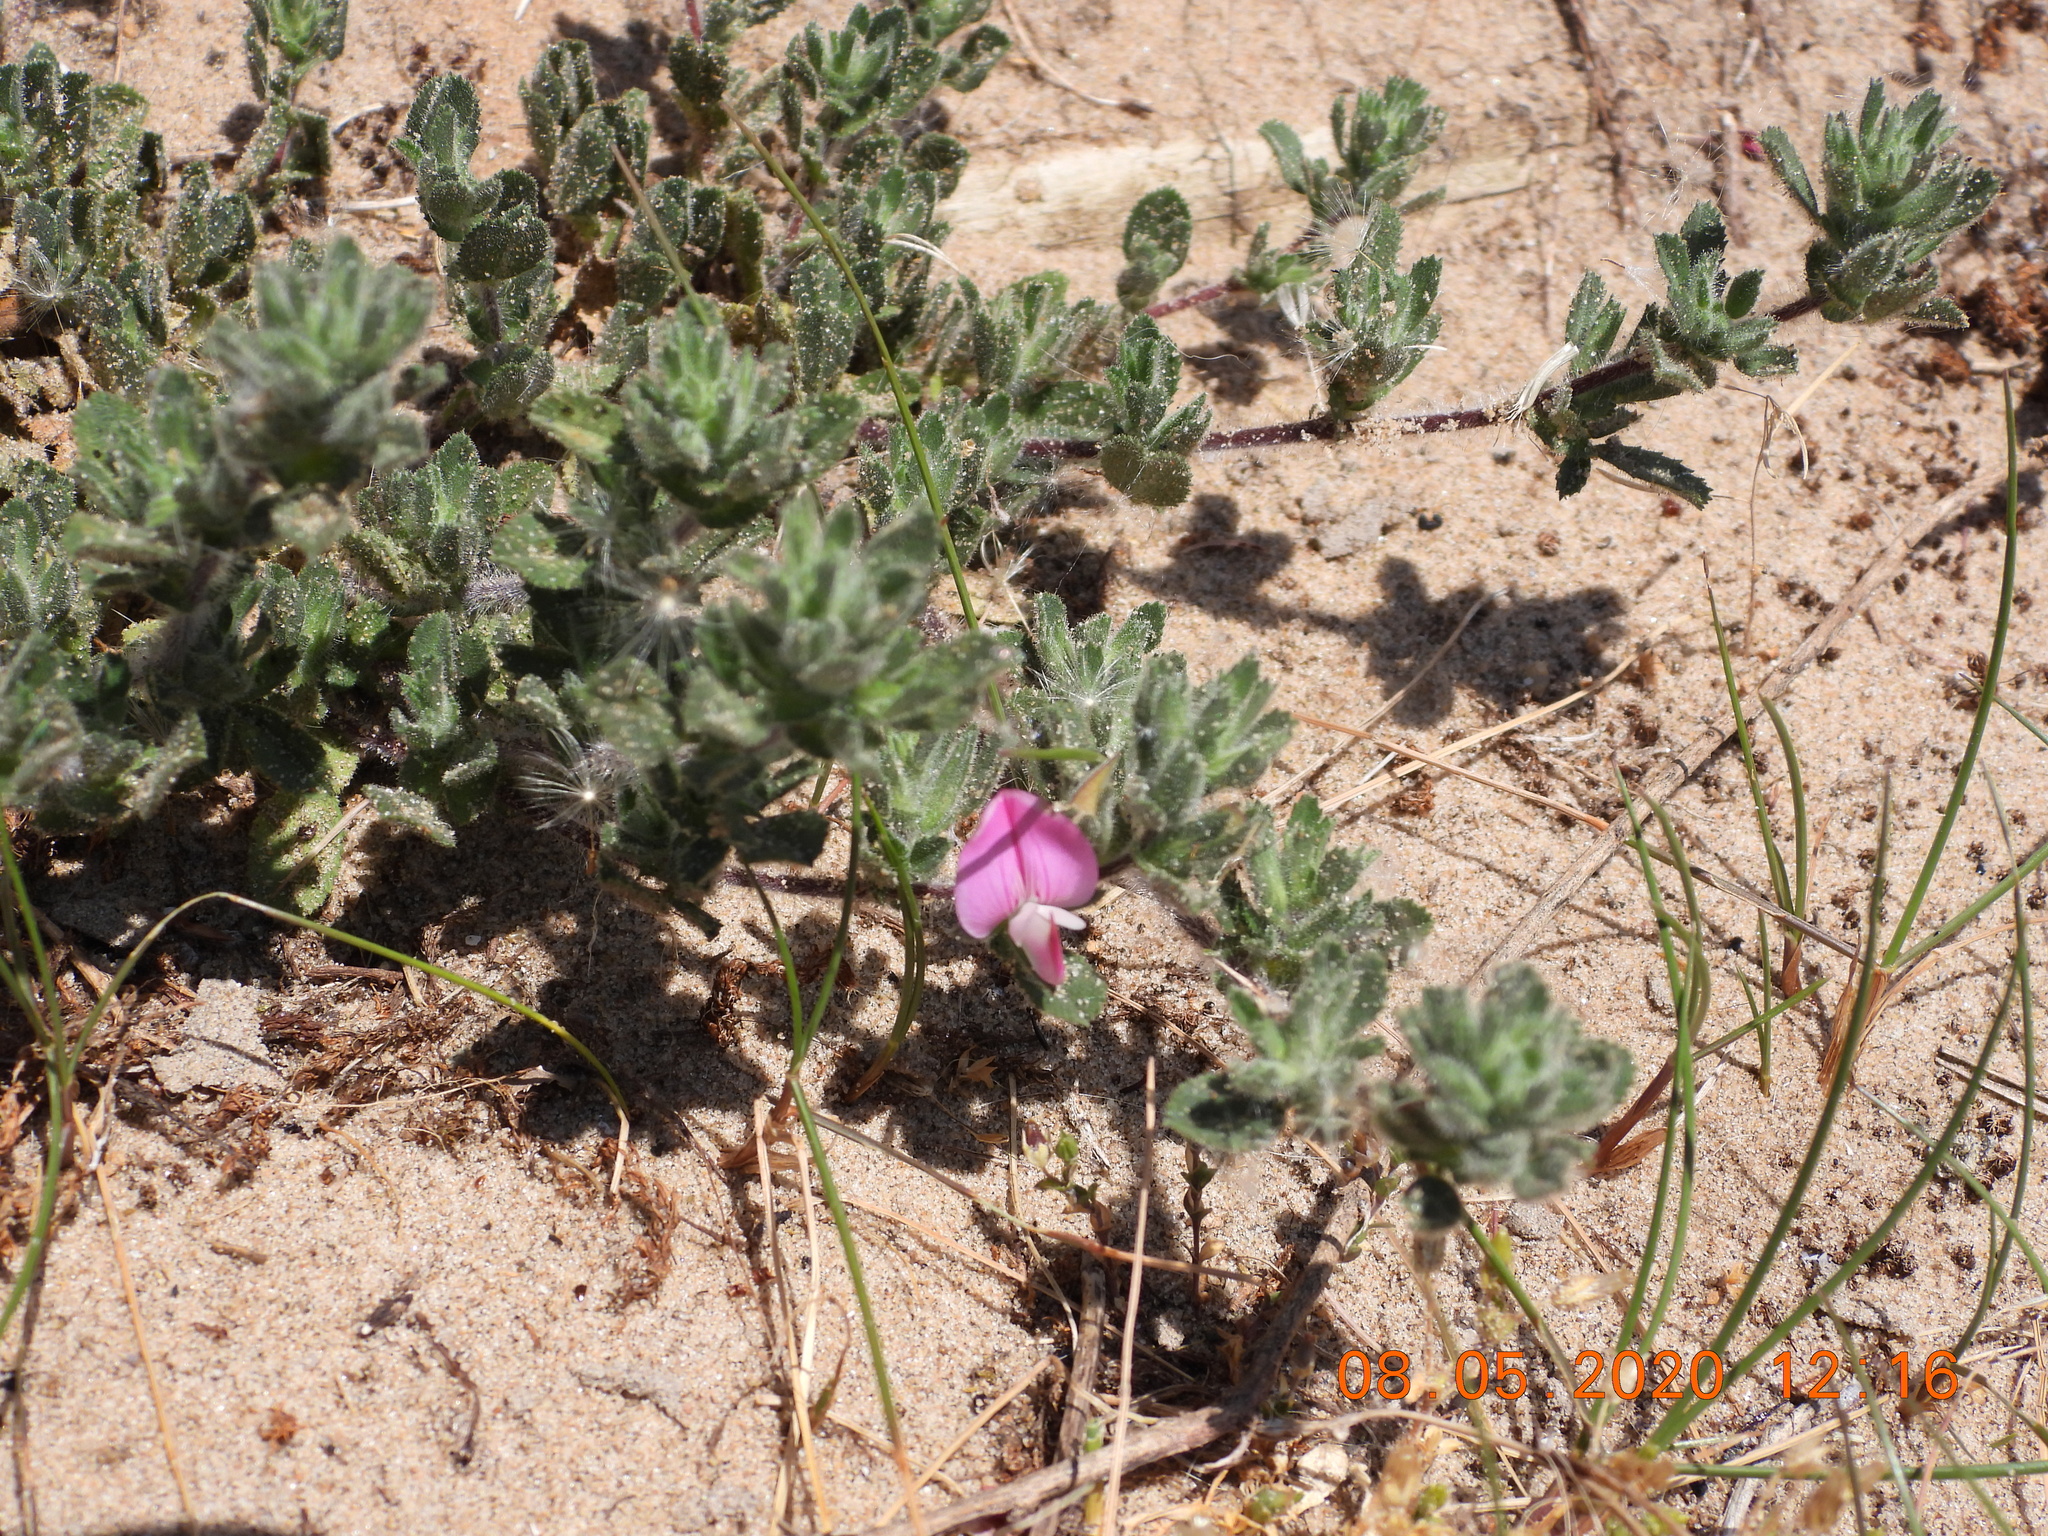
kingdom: Plantae
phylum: Tracheophyta
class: Magnoliopsida
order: Fabales
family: Fabaceae
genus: Ononis
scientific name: Ononis spinosa
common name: Spiny restharrow
